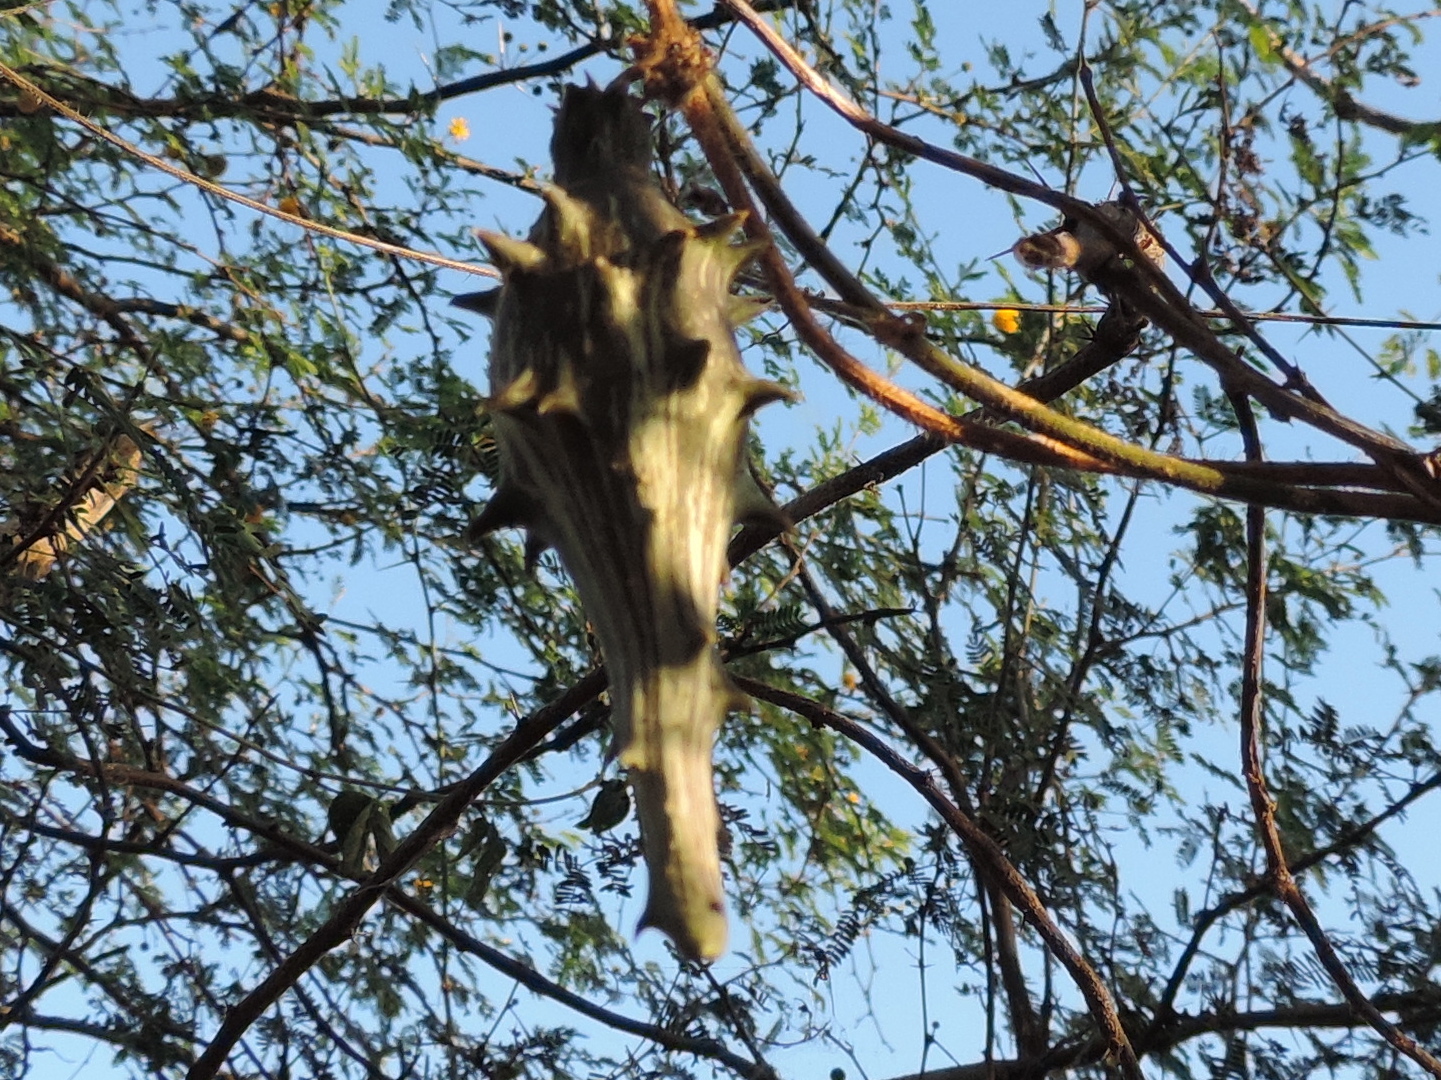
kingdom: Plantae
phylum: Tracheophyta
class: Magnoliopsida
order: Gentianales
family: Apocynaceae
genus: Dictyanthus
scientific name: Dictyanthus
